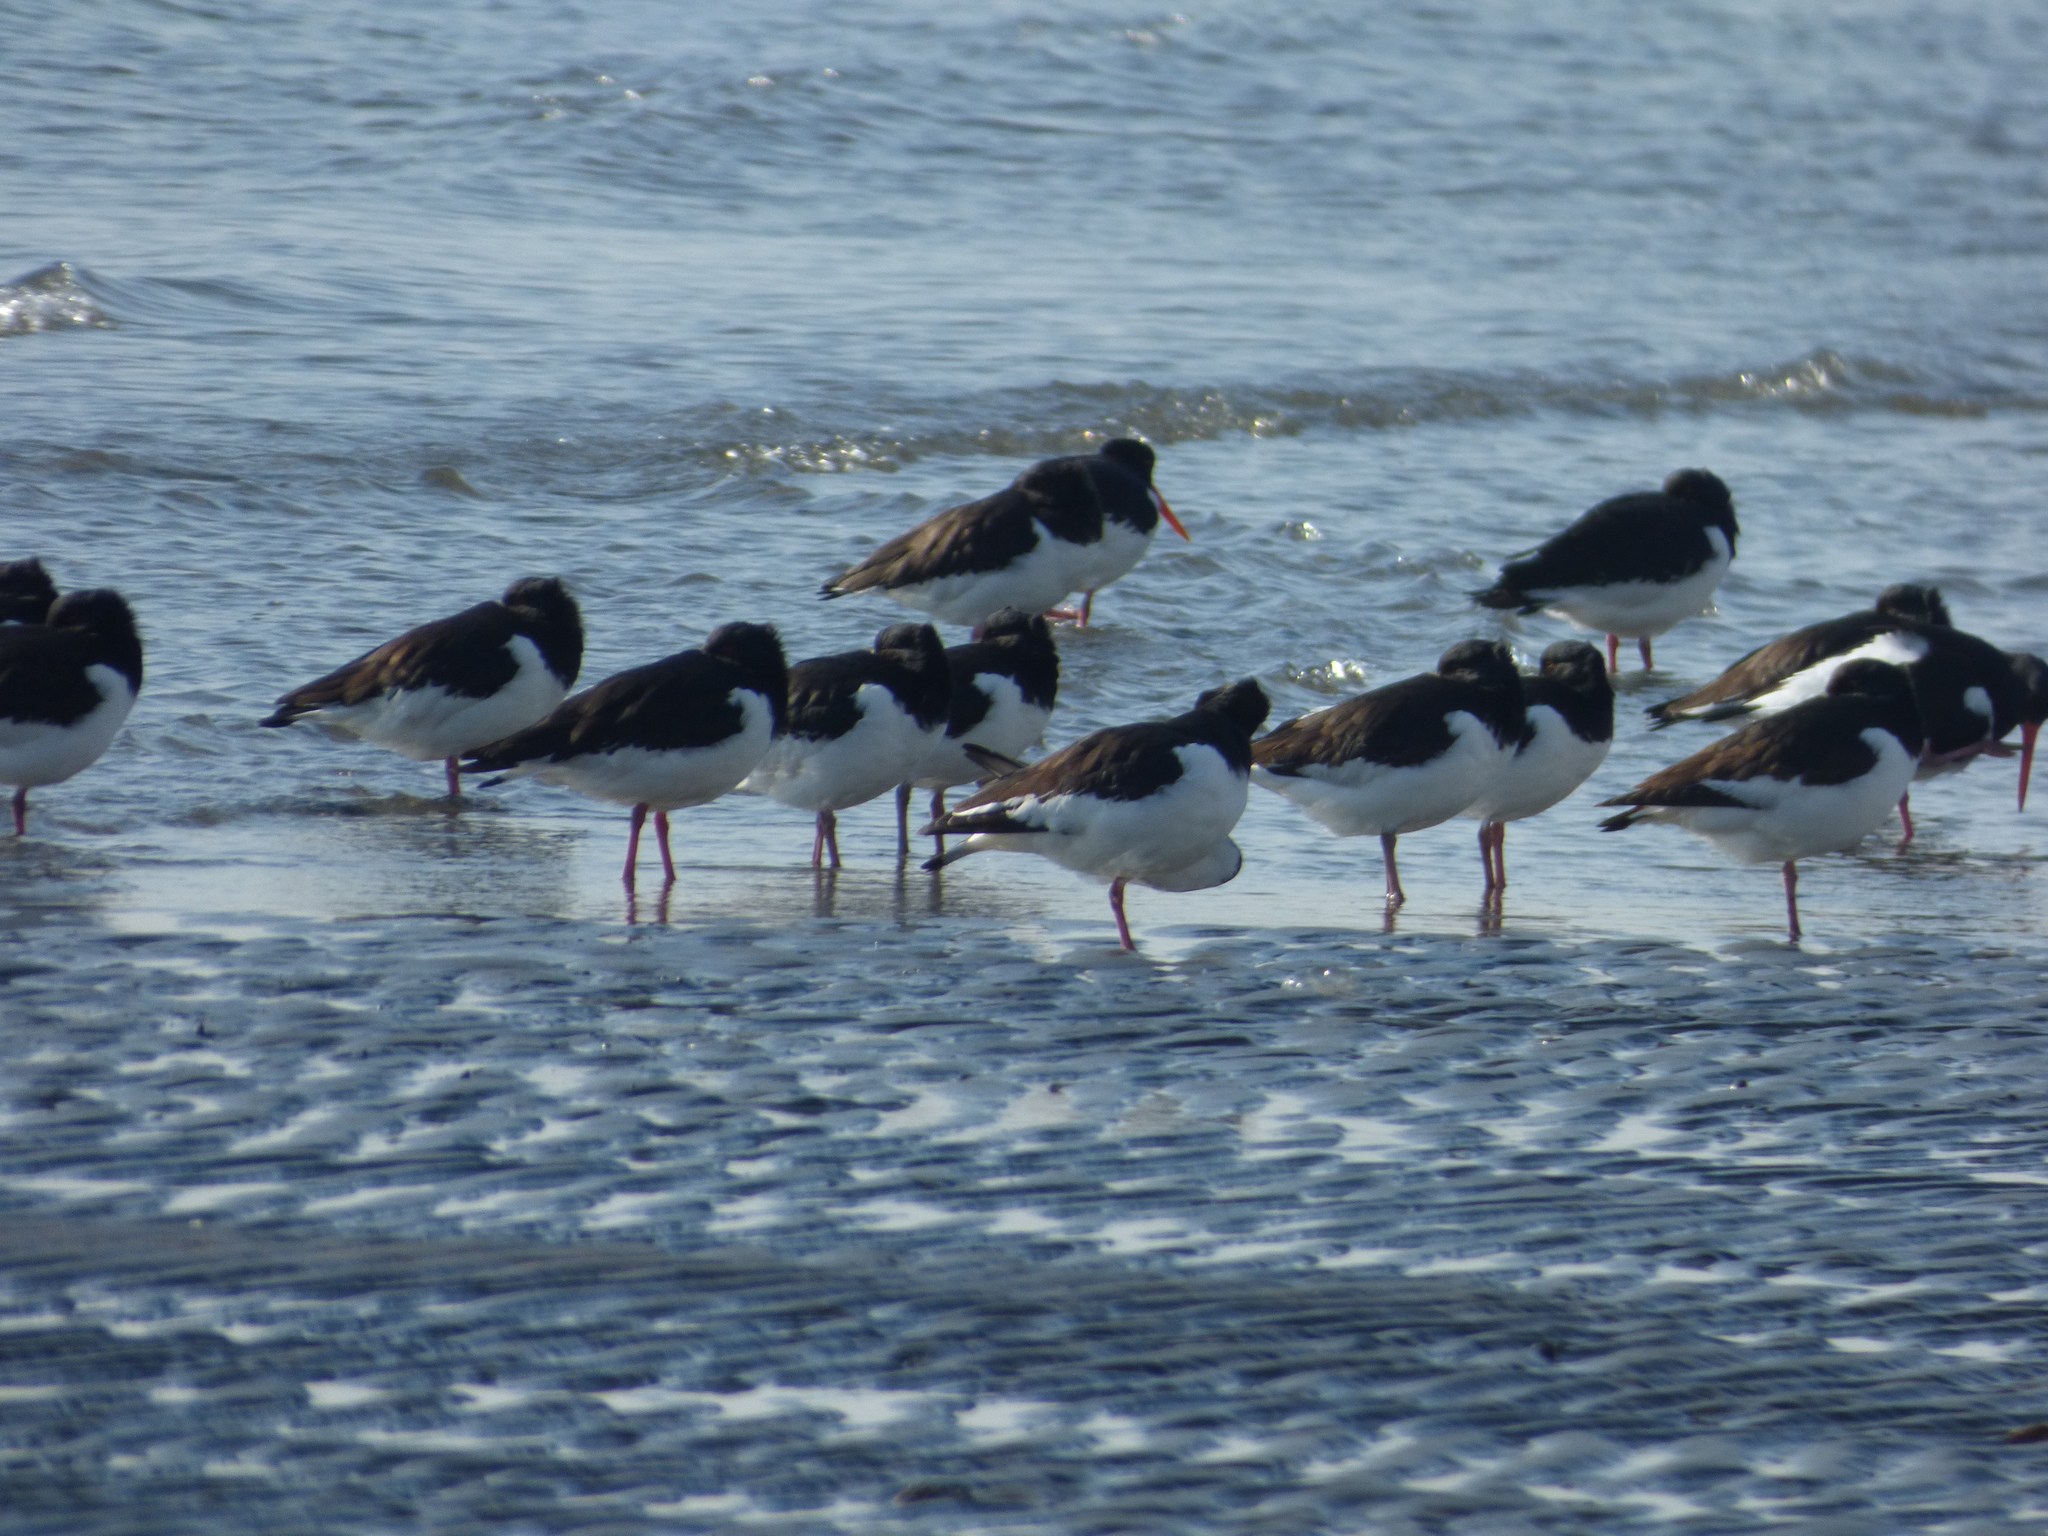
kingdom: Animalia
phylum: Chordata
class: Aves
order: Charadriiformes
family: Haematopodidae
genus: Haematopus
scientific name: Haematopus ostralegus
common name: Eurasian oystercatcher
